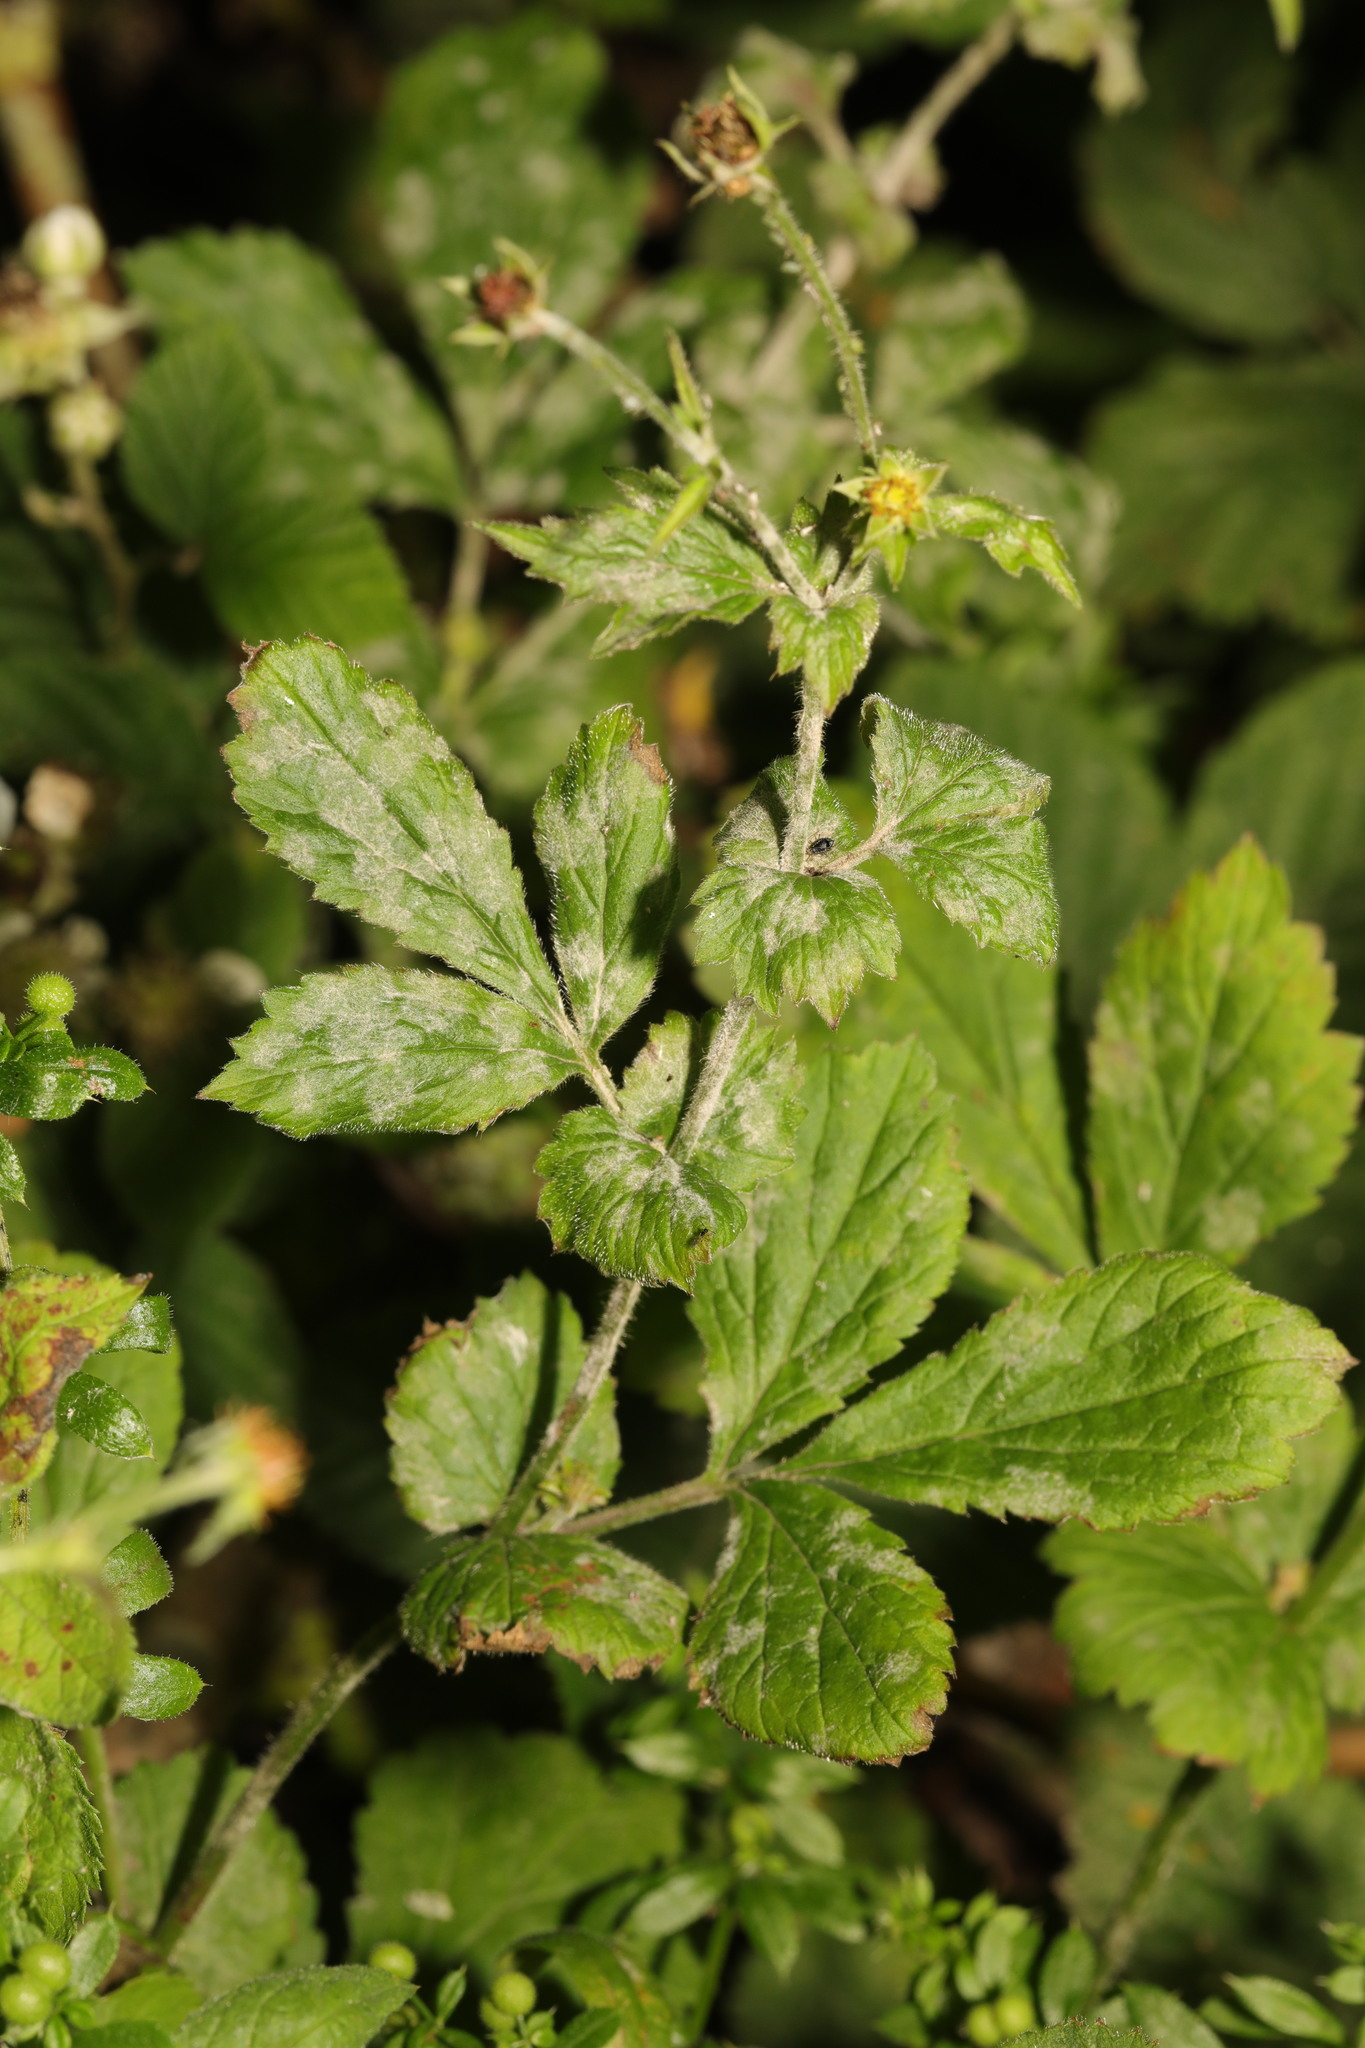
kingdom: Fungi
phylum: Ascomycota
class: Leotiomycetes
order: Helotiales
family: Erysiphaceae
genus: Podosphaera
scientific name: Podosphaera aphanis
